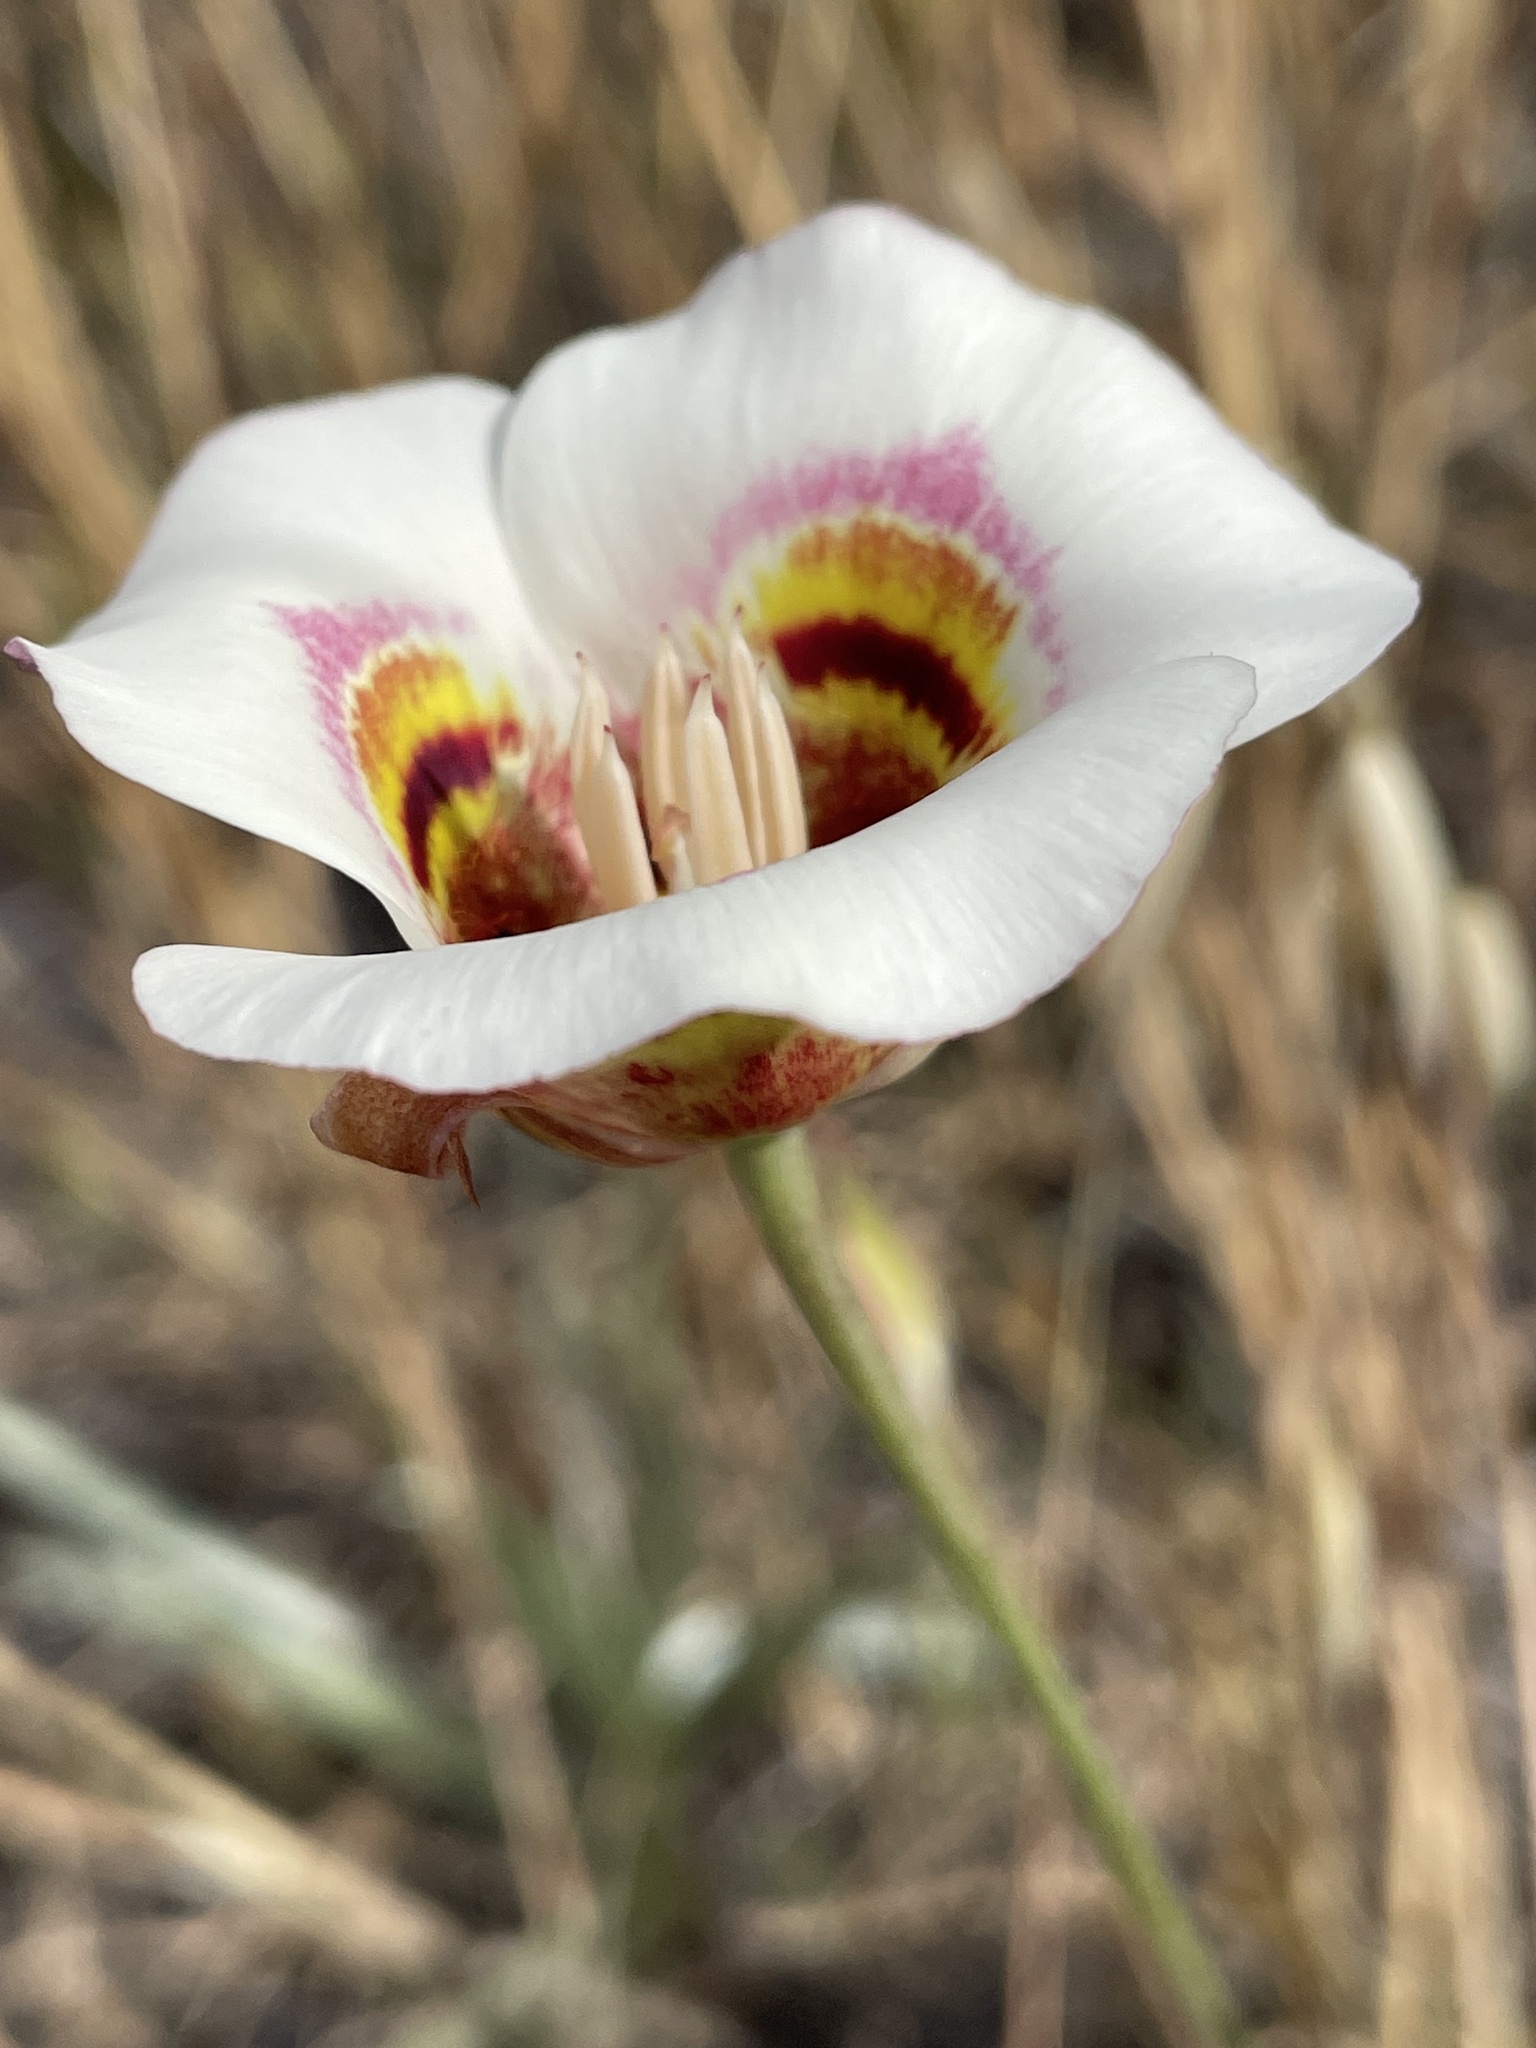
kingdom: Plantae
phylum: Tracheophyta
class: Liliopsida
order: Liliales
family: Liliaceae
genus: Calochortus
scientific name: Calochortus argillosus
